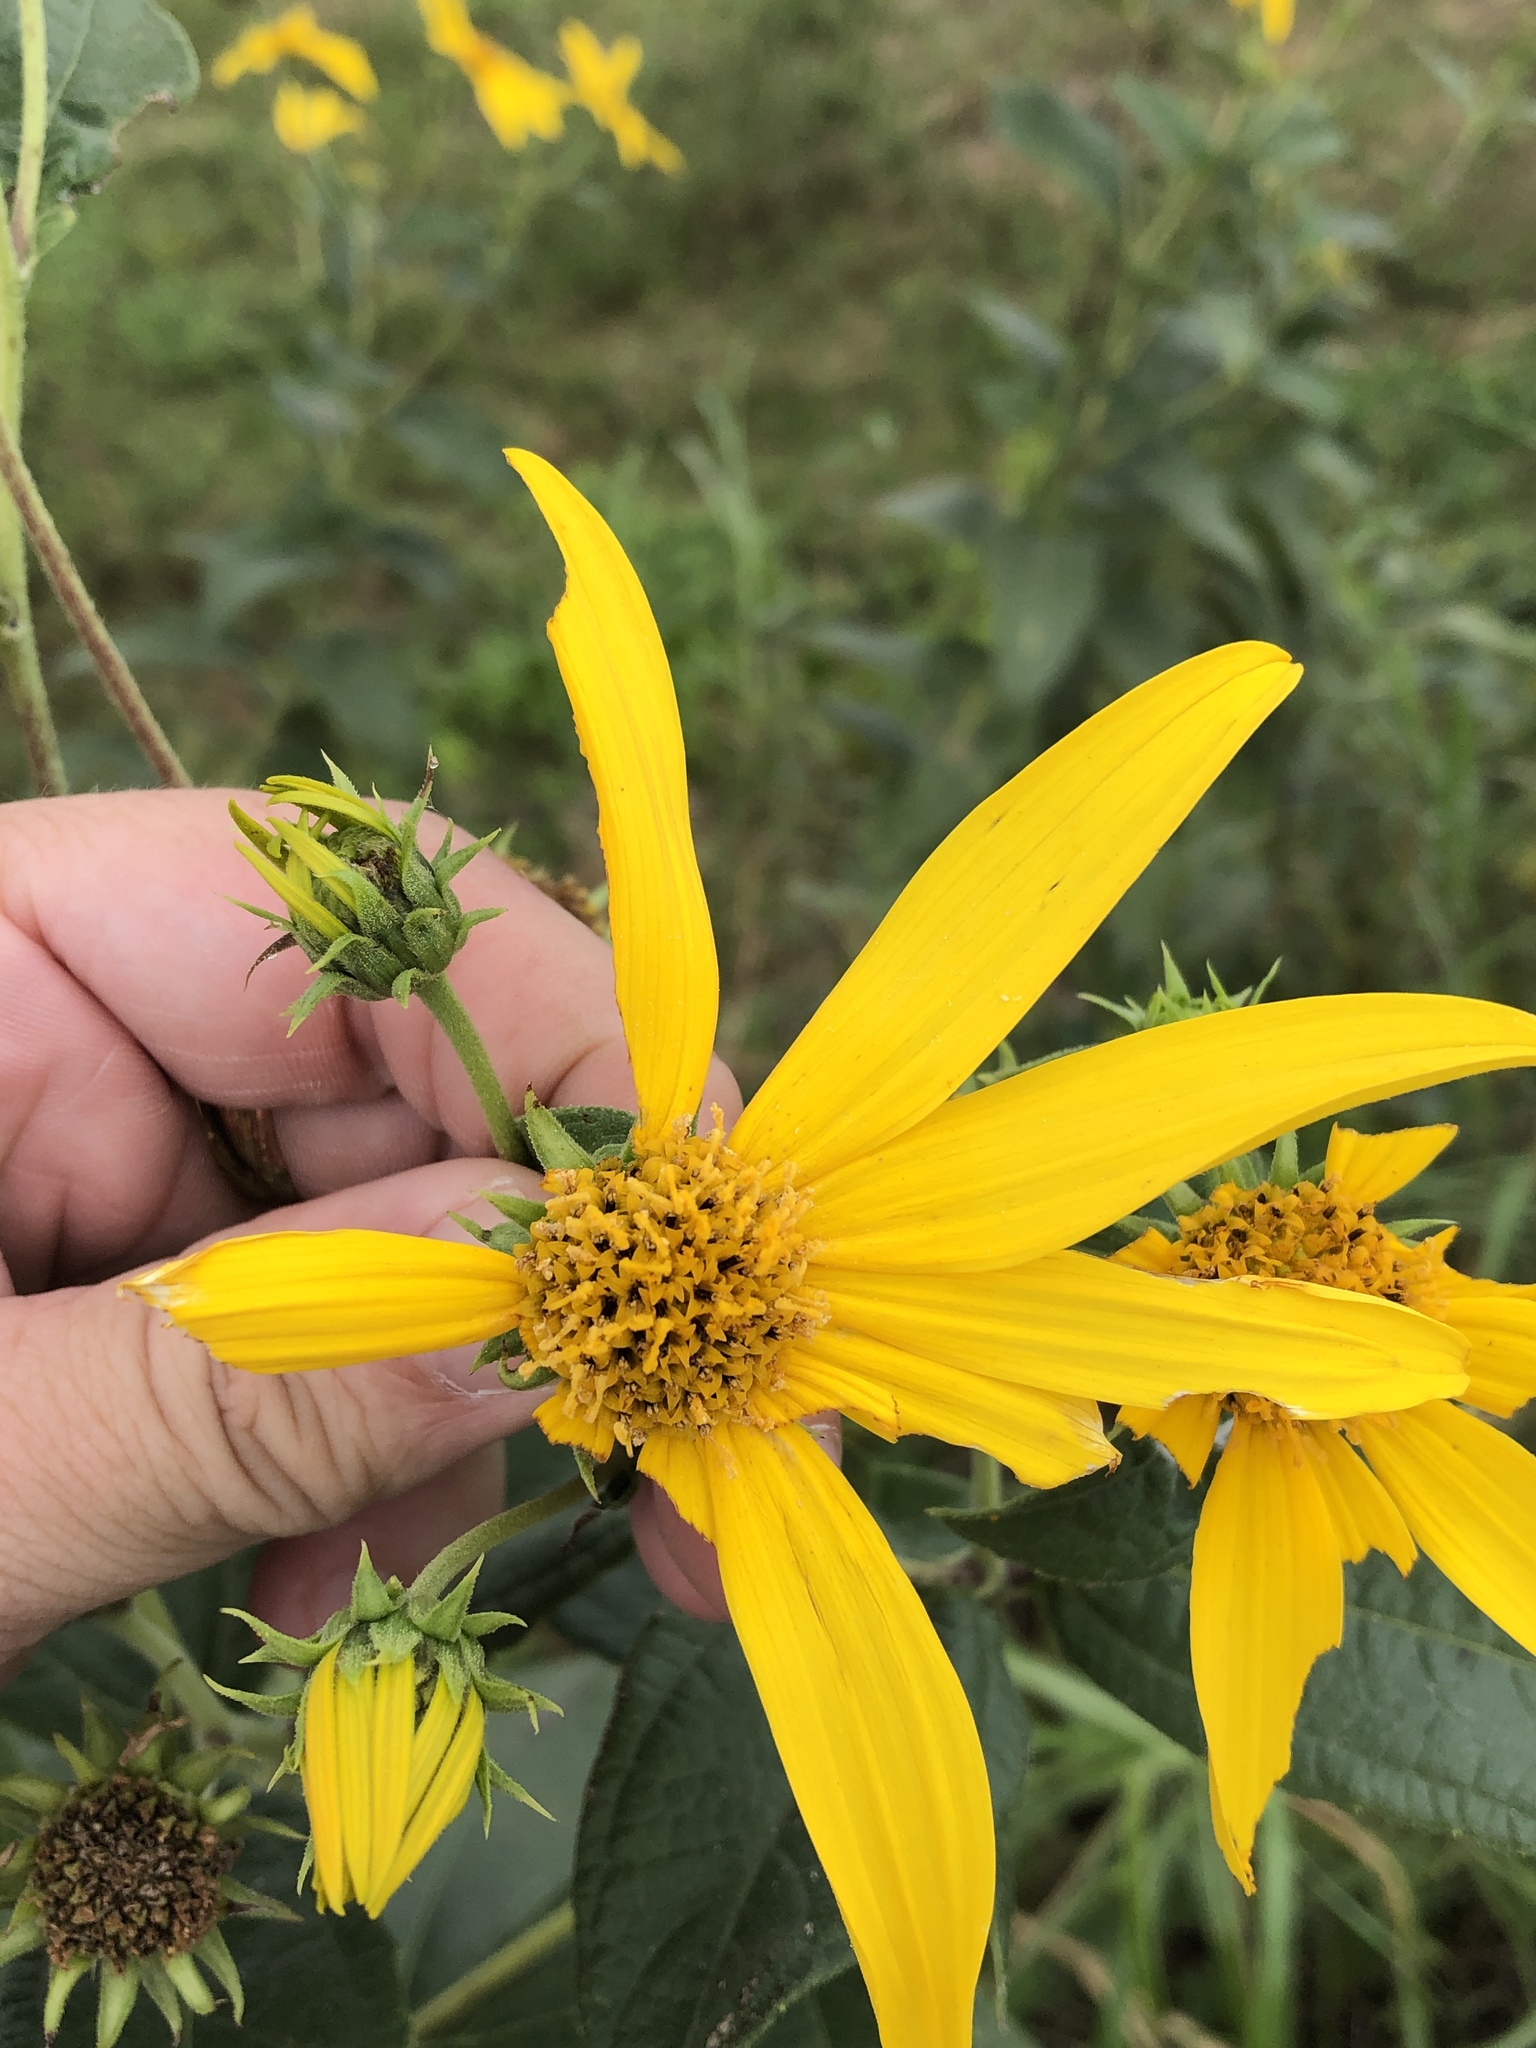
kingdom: Plantae
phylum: Tracheophyta
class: Magnoliopsida
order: Asterales
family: Asteraceae
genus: Helianthus
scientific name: Helianthus hirsutus
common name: Hairy sunflower
